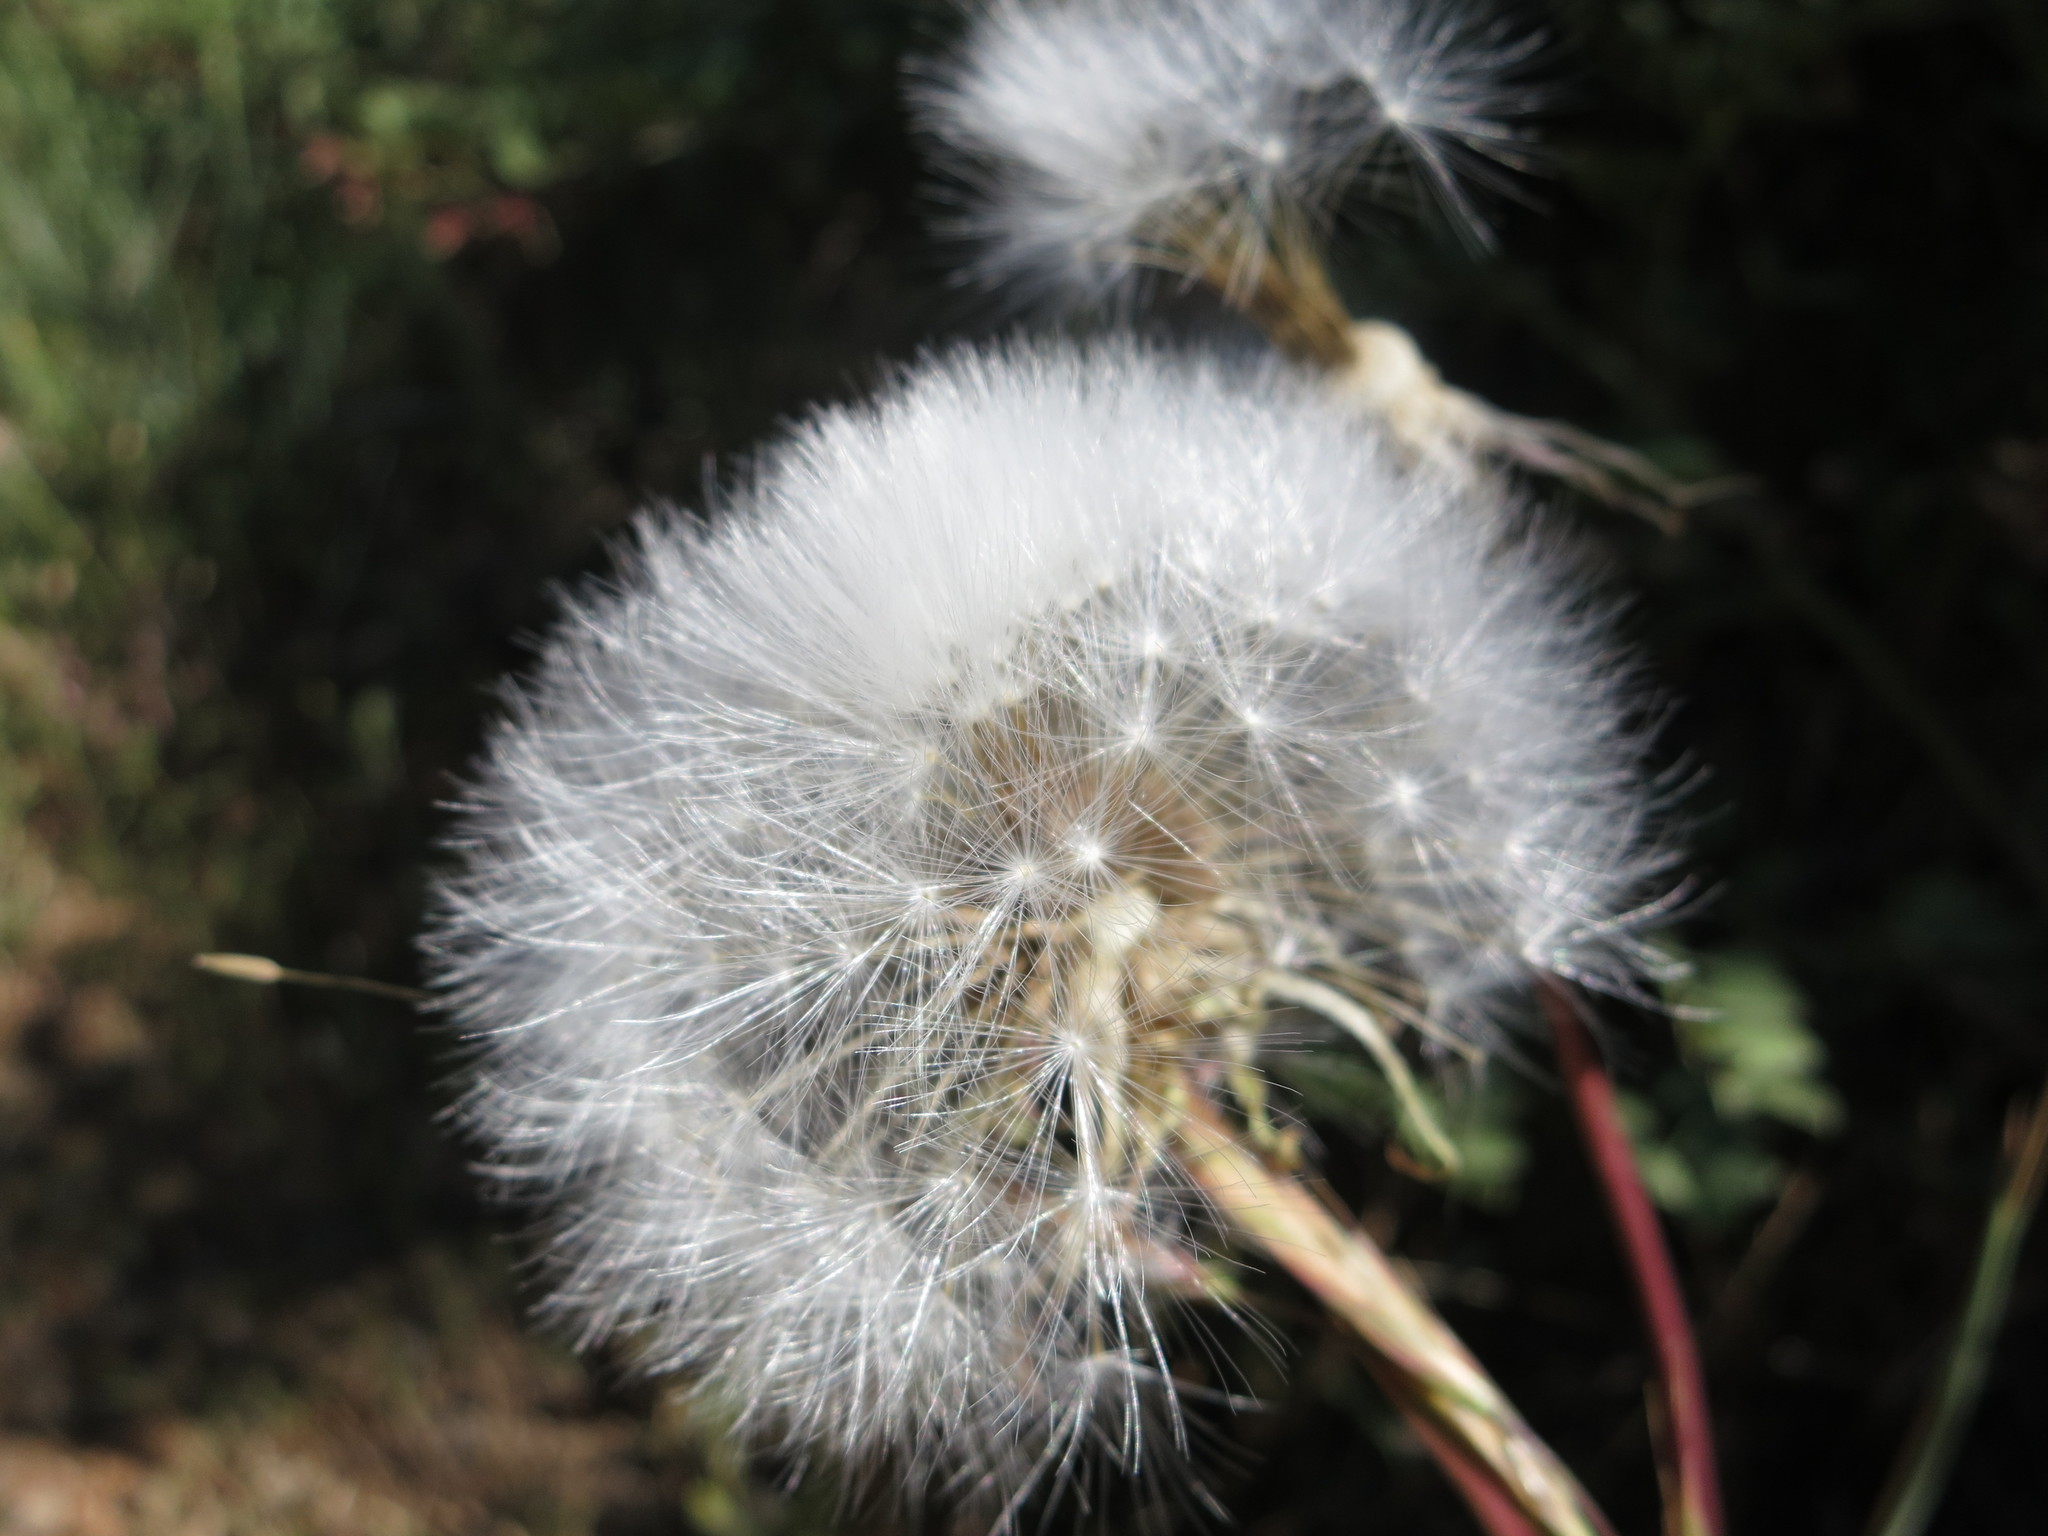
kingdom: Plantae
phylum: Tracheophyta
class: Magnoliopsida
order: Asterales
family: Asteraceae
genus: Agoseris
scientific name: Agoseris grandiflora
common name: Grassland agoseris
